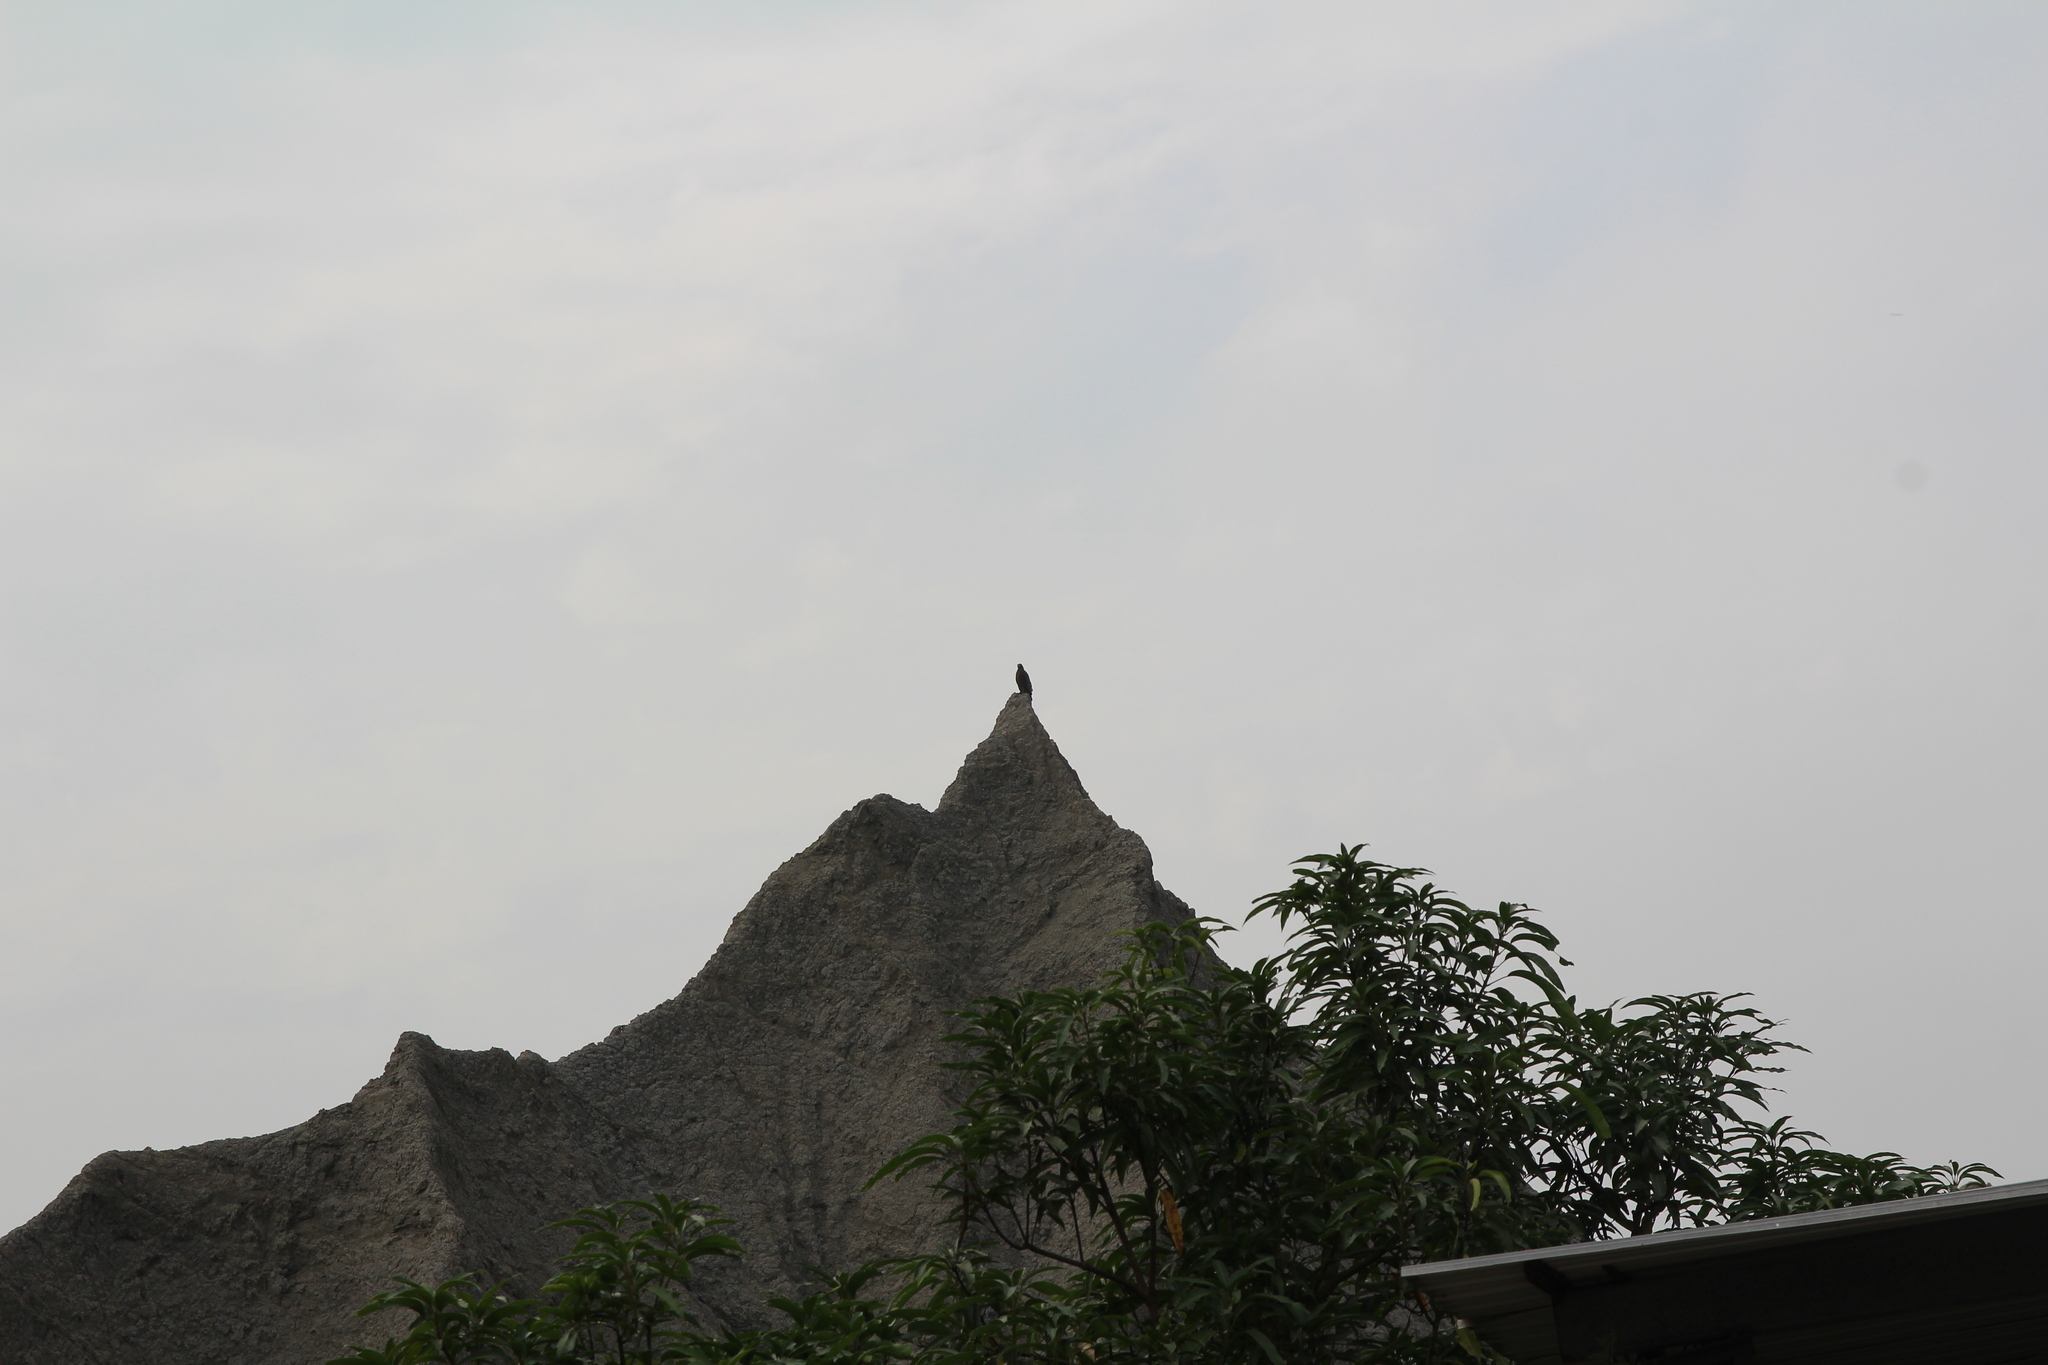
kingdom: Animalia
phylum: Chordata
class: Aves
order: Accipitriformes
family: Accipitridae
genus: Spilornis
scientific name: Spilornis cheela
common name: Crested serpent eagle
